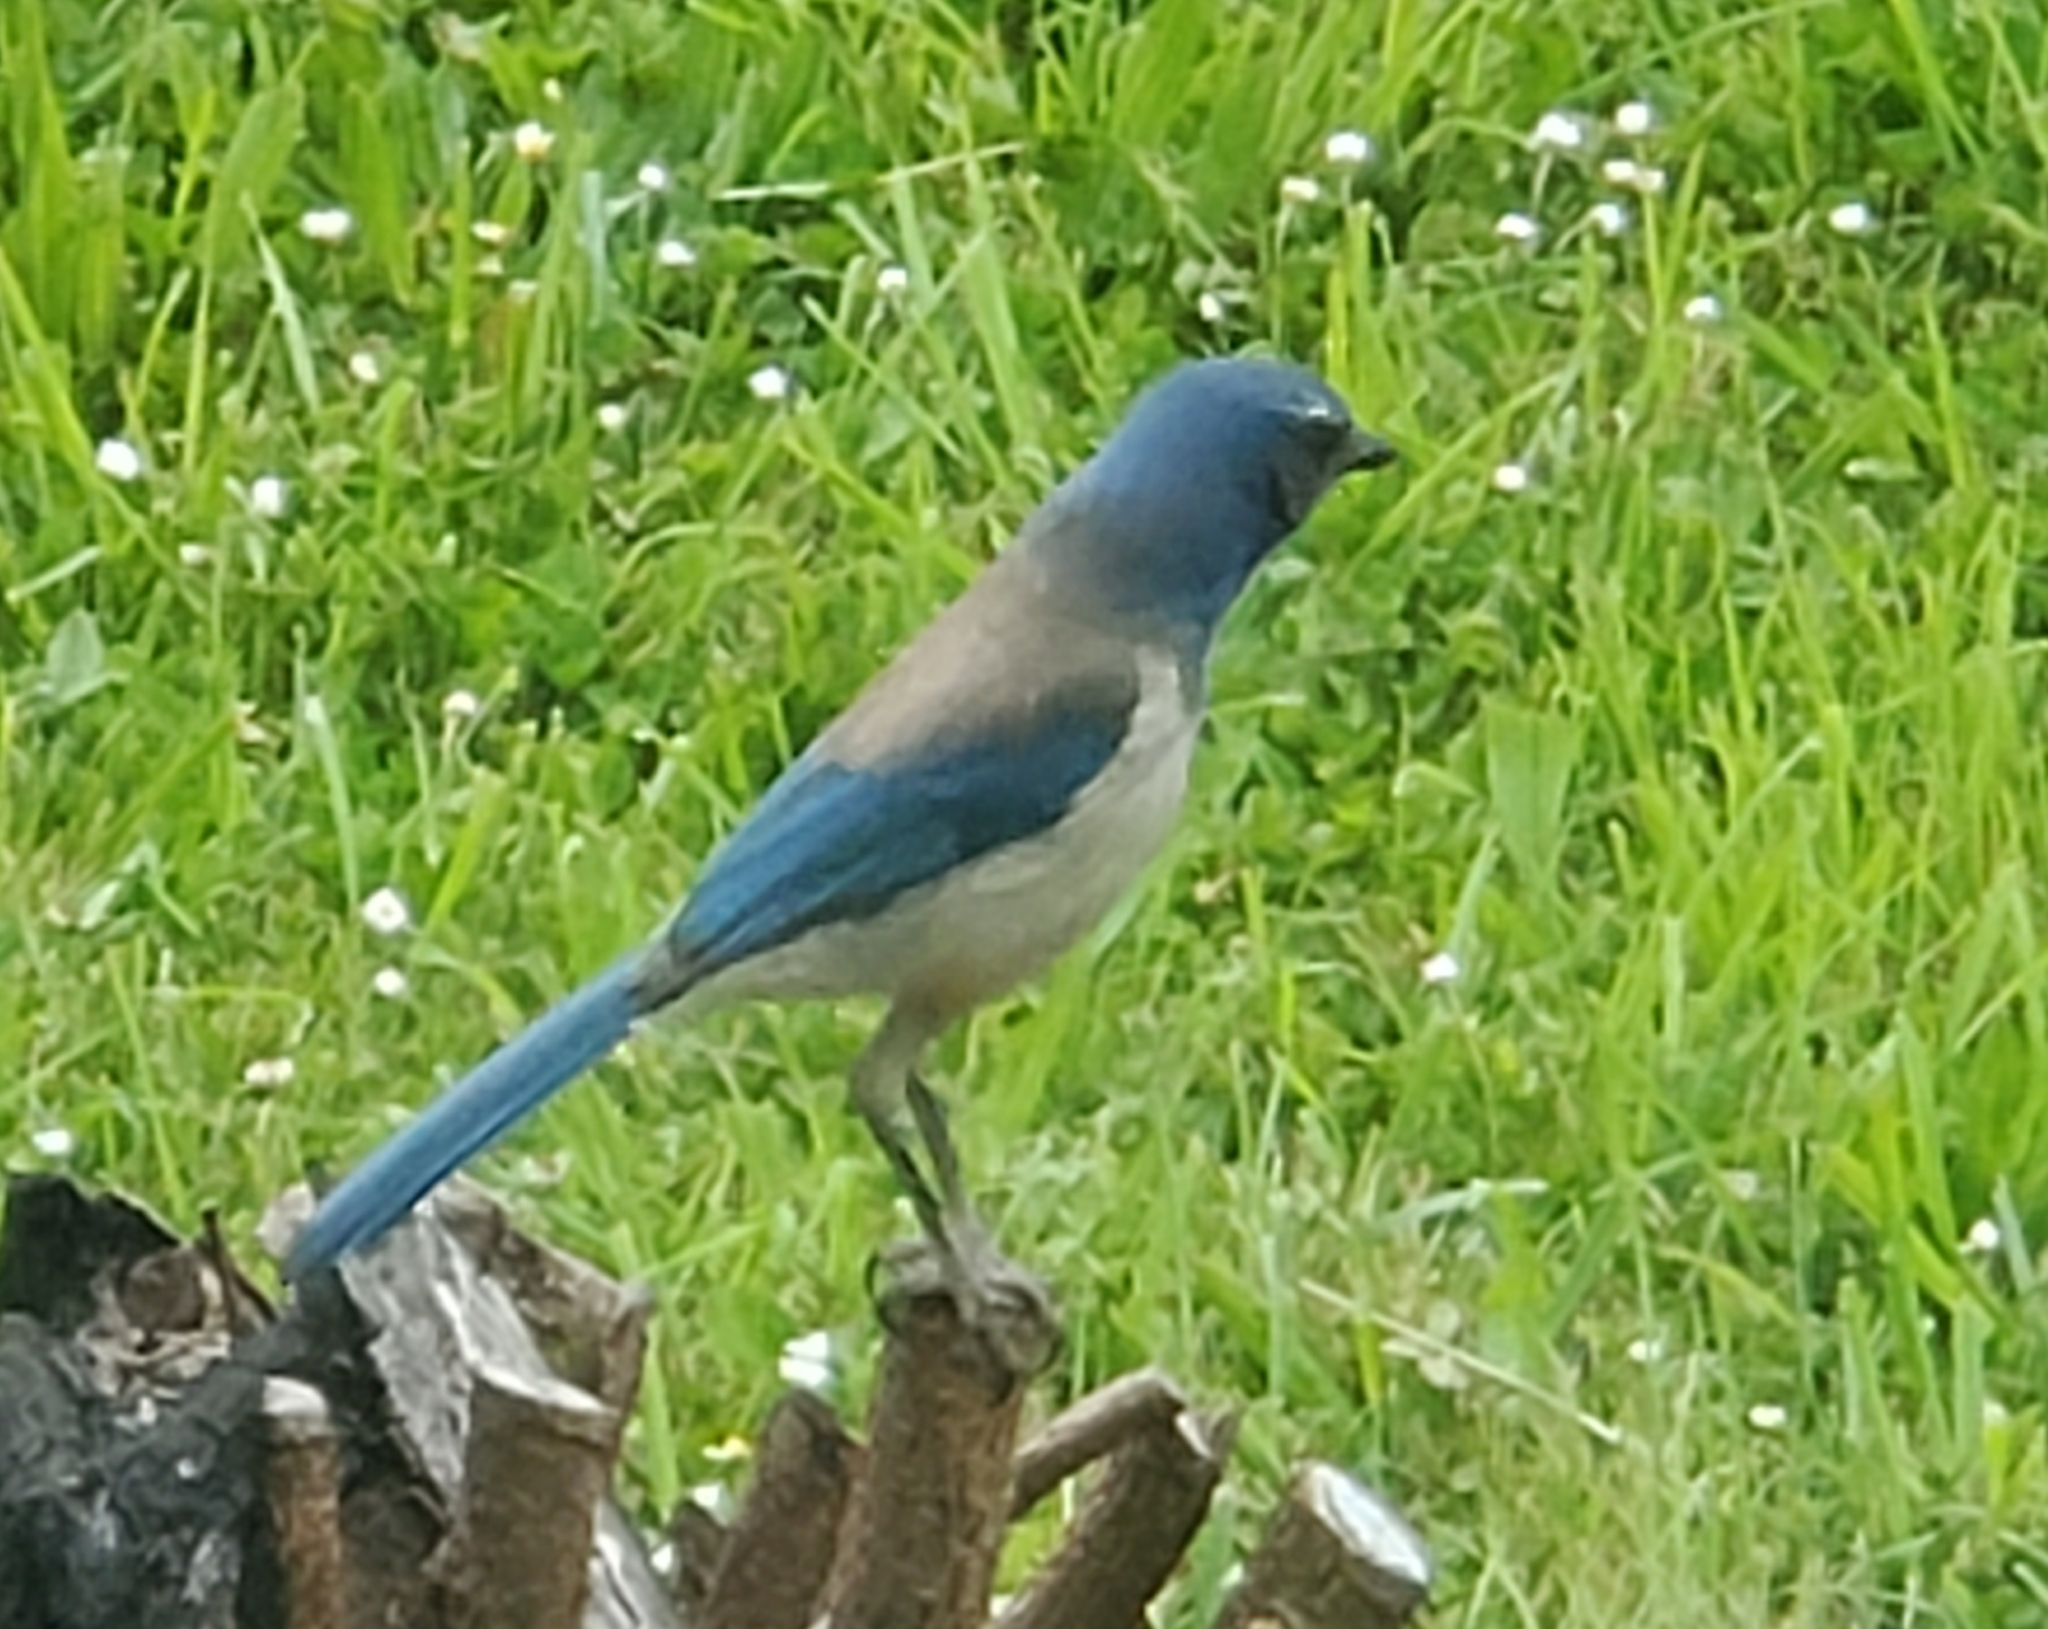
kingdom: Animalia
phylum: Chordata
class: Aves
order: Passeriformes
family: Corvidae
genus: Aphelocoma
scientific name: Aphelocoma californica
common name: California scrub-jay
